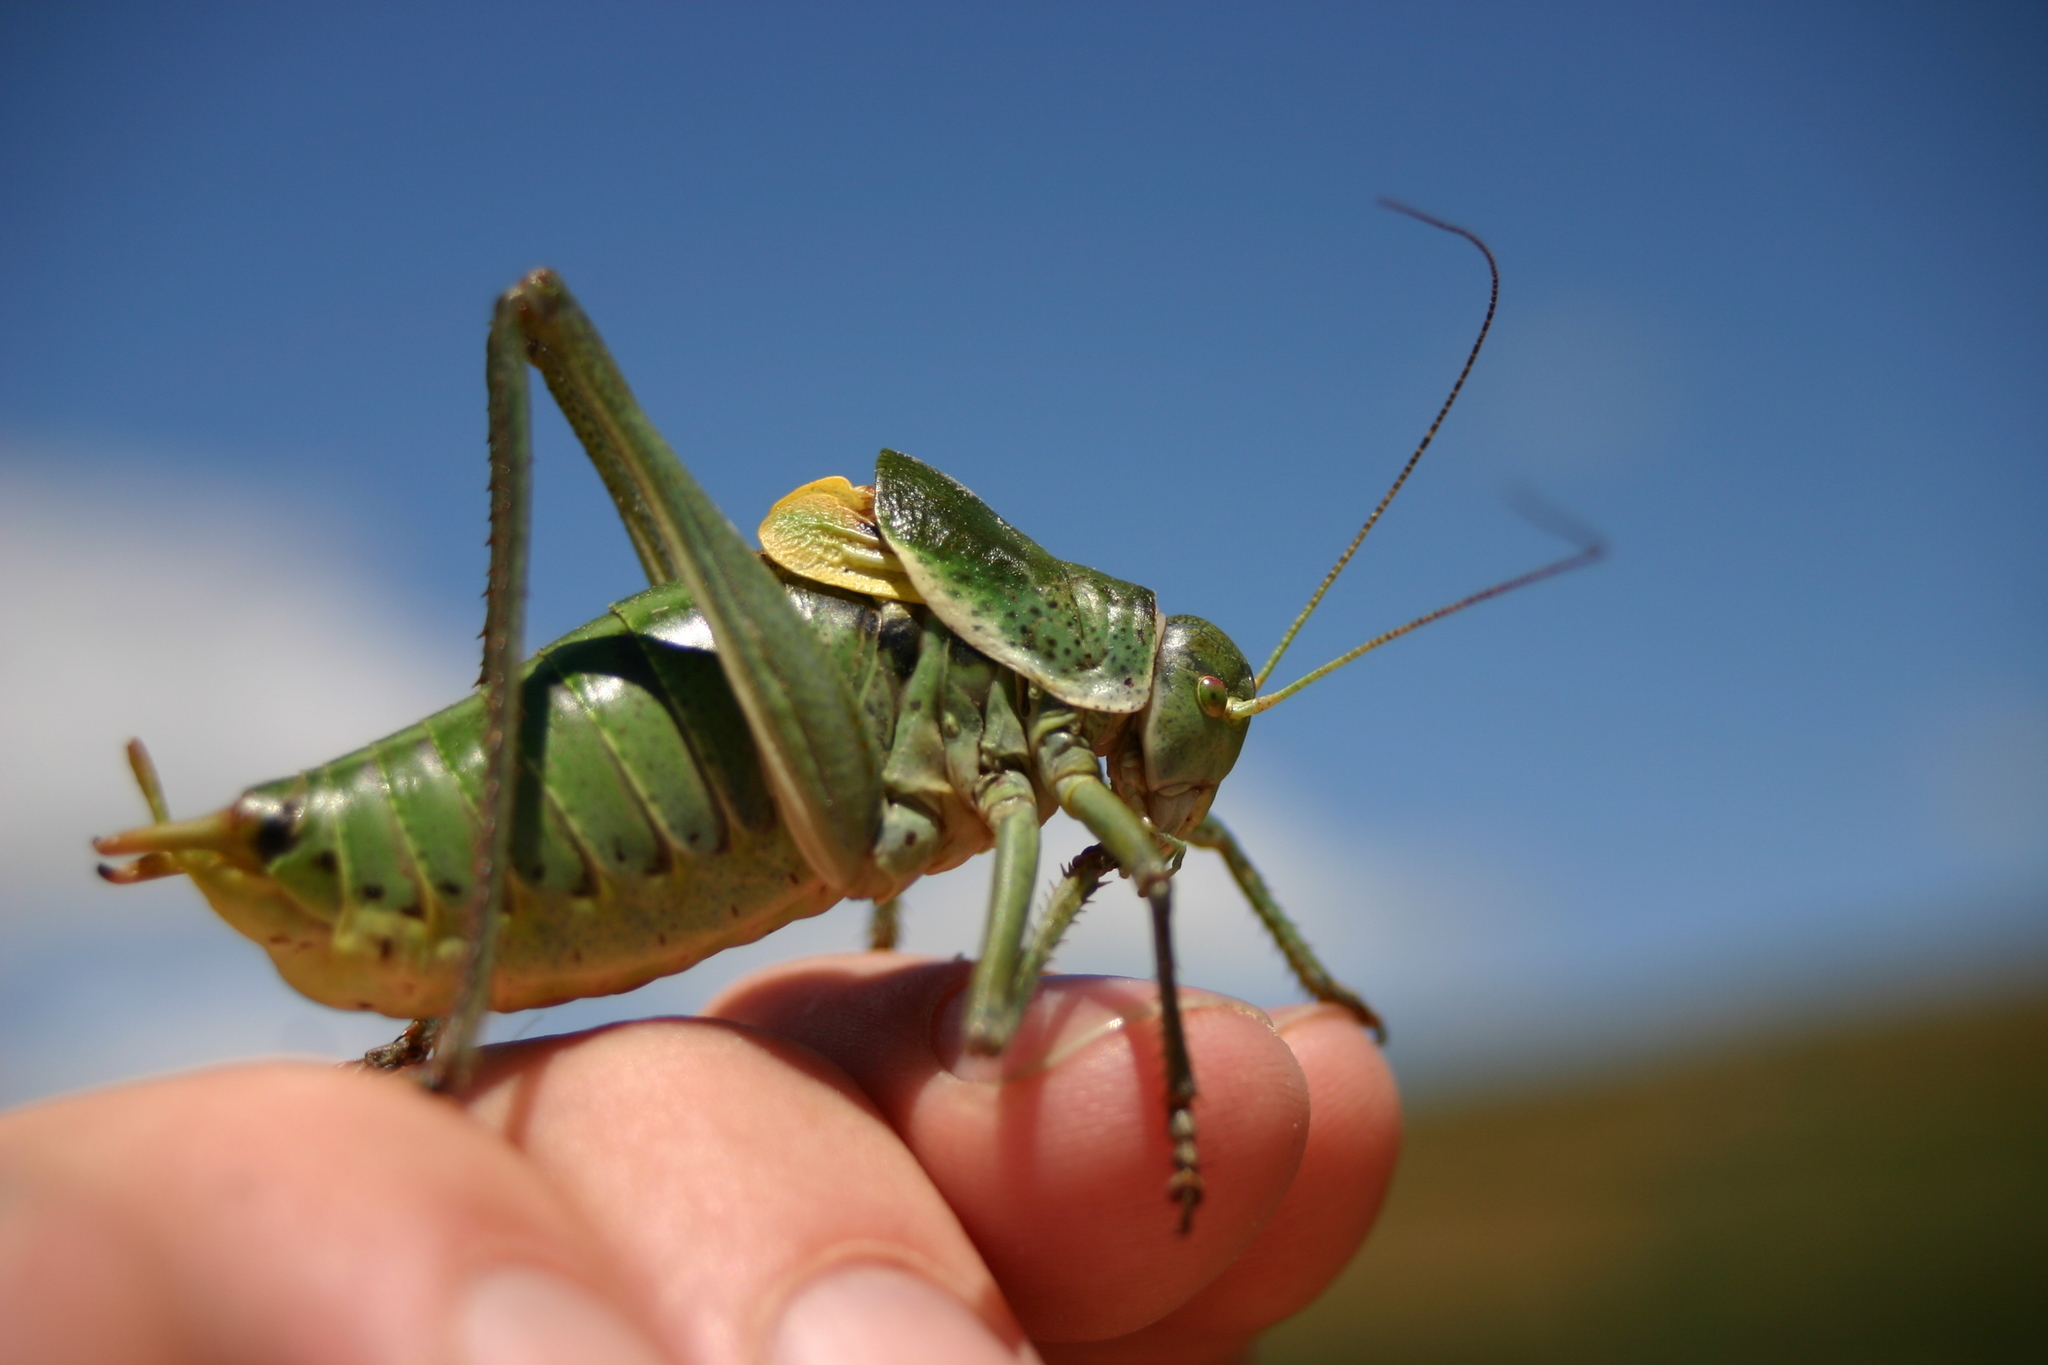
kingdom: Animalia
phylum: Arthropoda
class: Insecta
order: Orthoptera
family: Tettigoniidae
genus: Polysarcus
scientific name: Polysarcus denticauda
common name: Large saw-tailed bush-cricket
